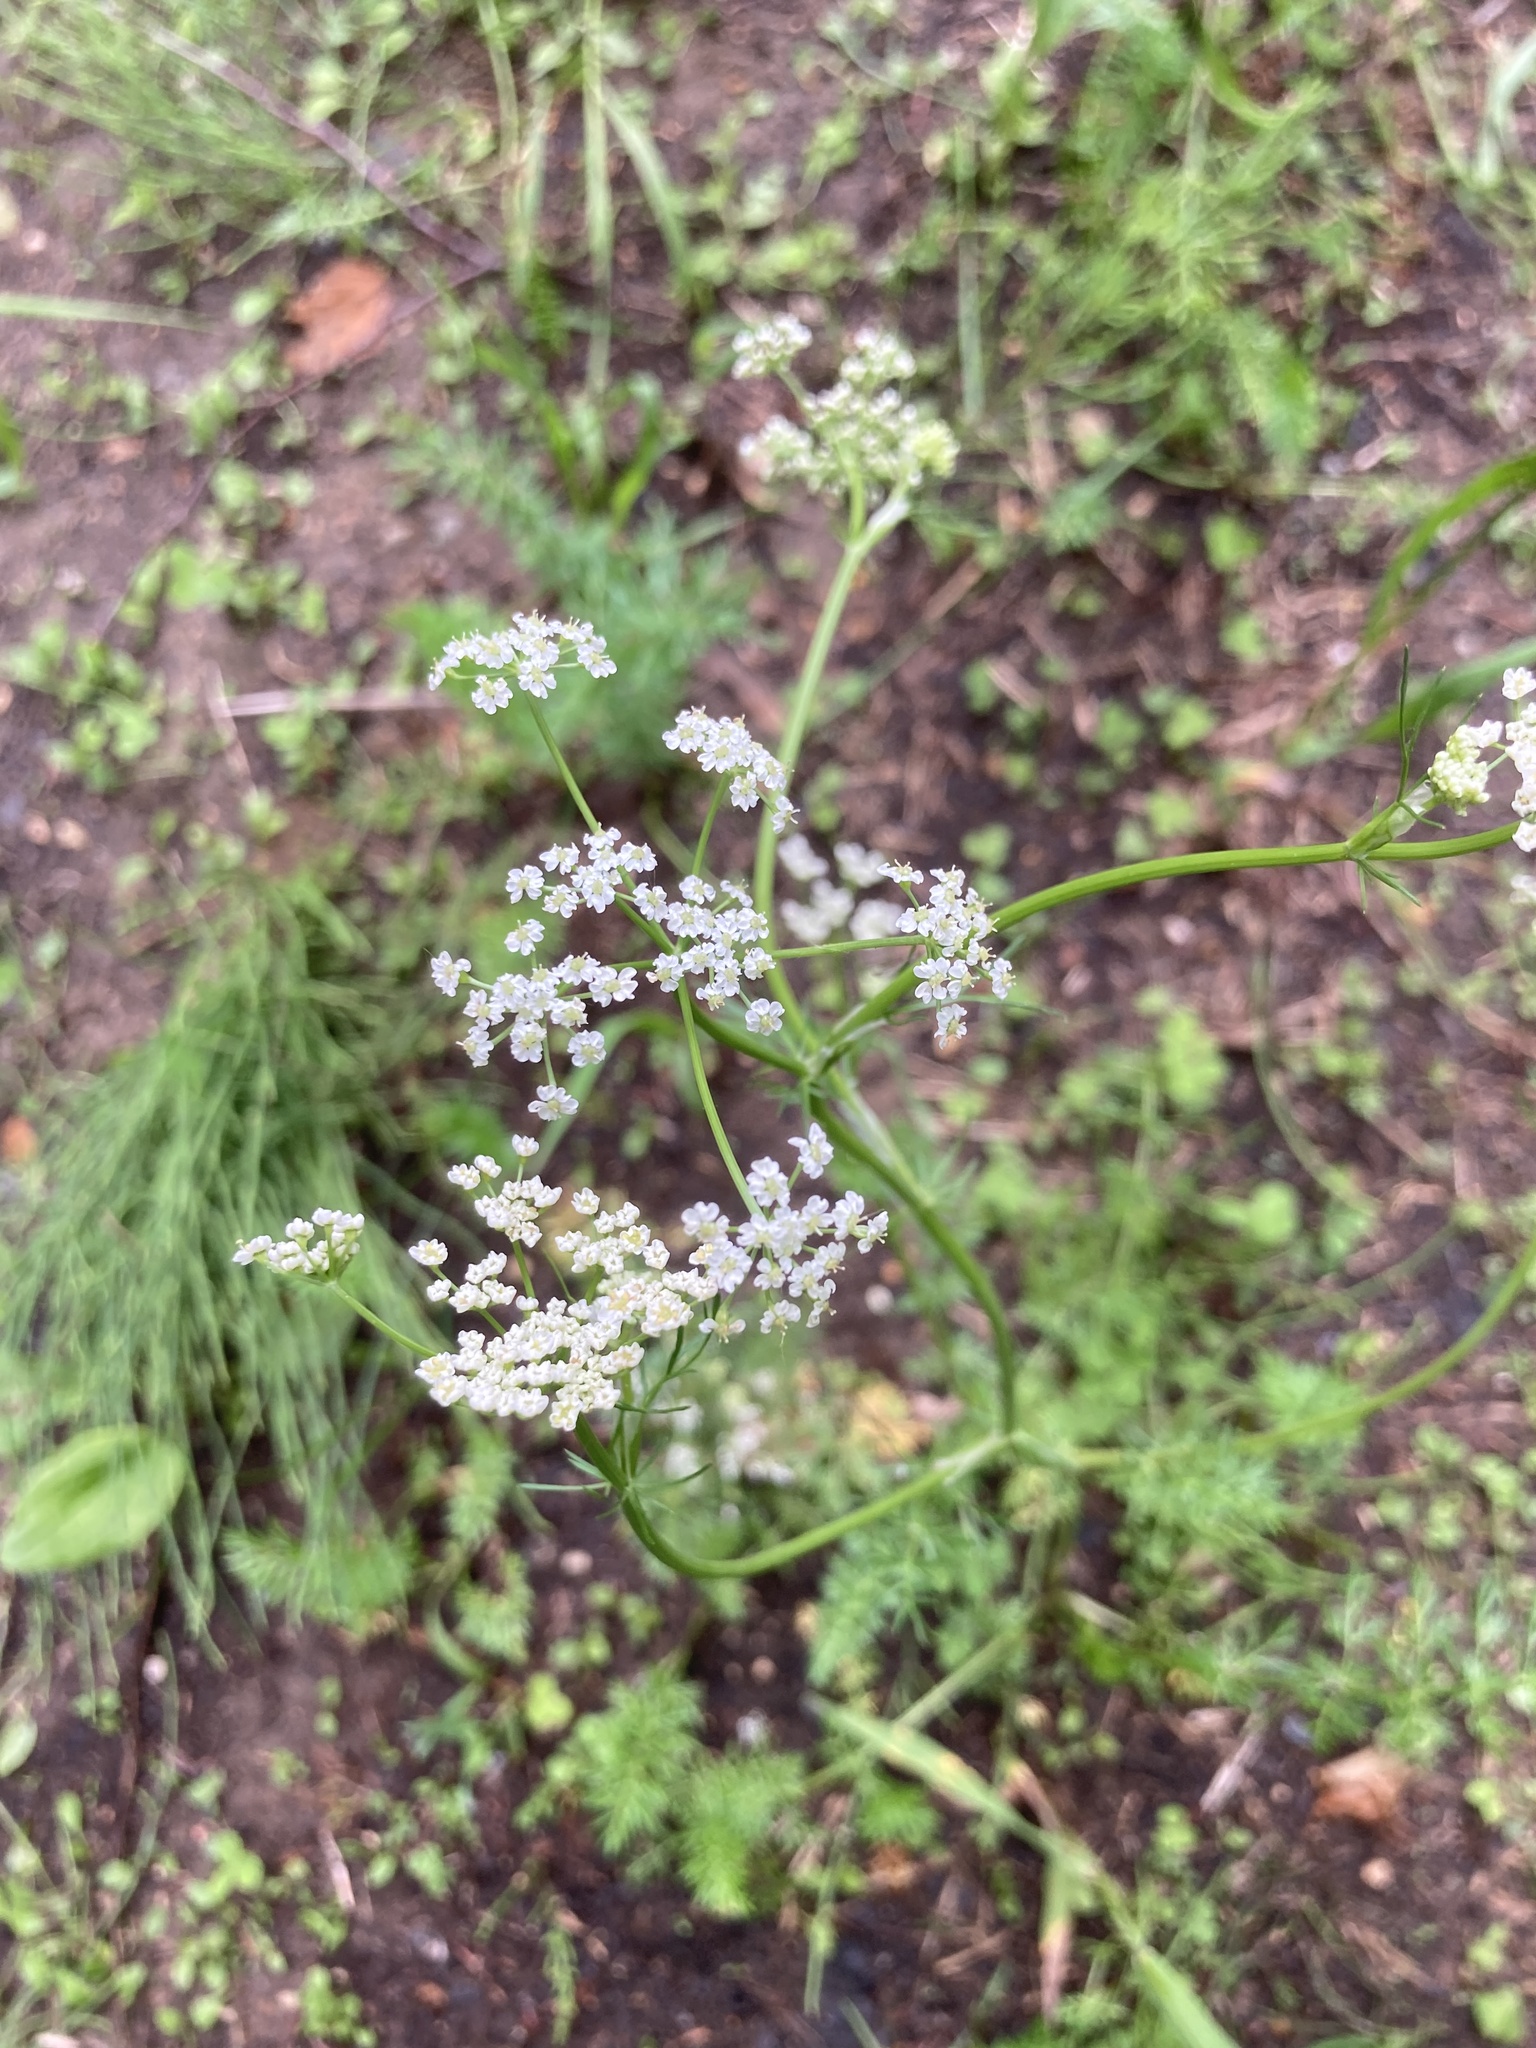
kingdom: Plantae
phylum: Tracheophyta
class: Magnoliopsida
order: Apiales
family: Apiaceae
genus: Carum
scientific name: Carum carvi
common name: Caraway
